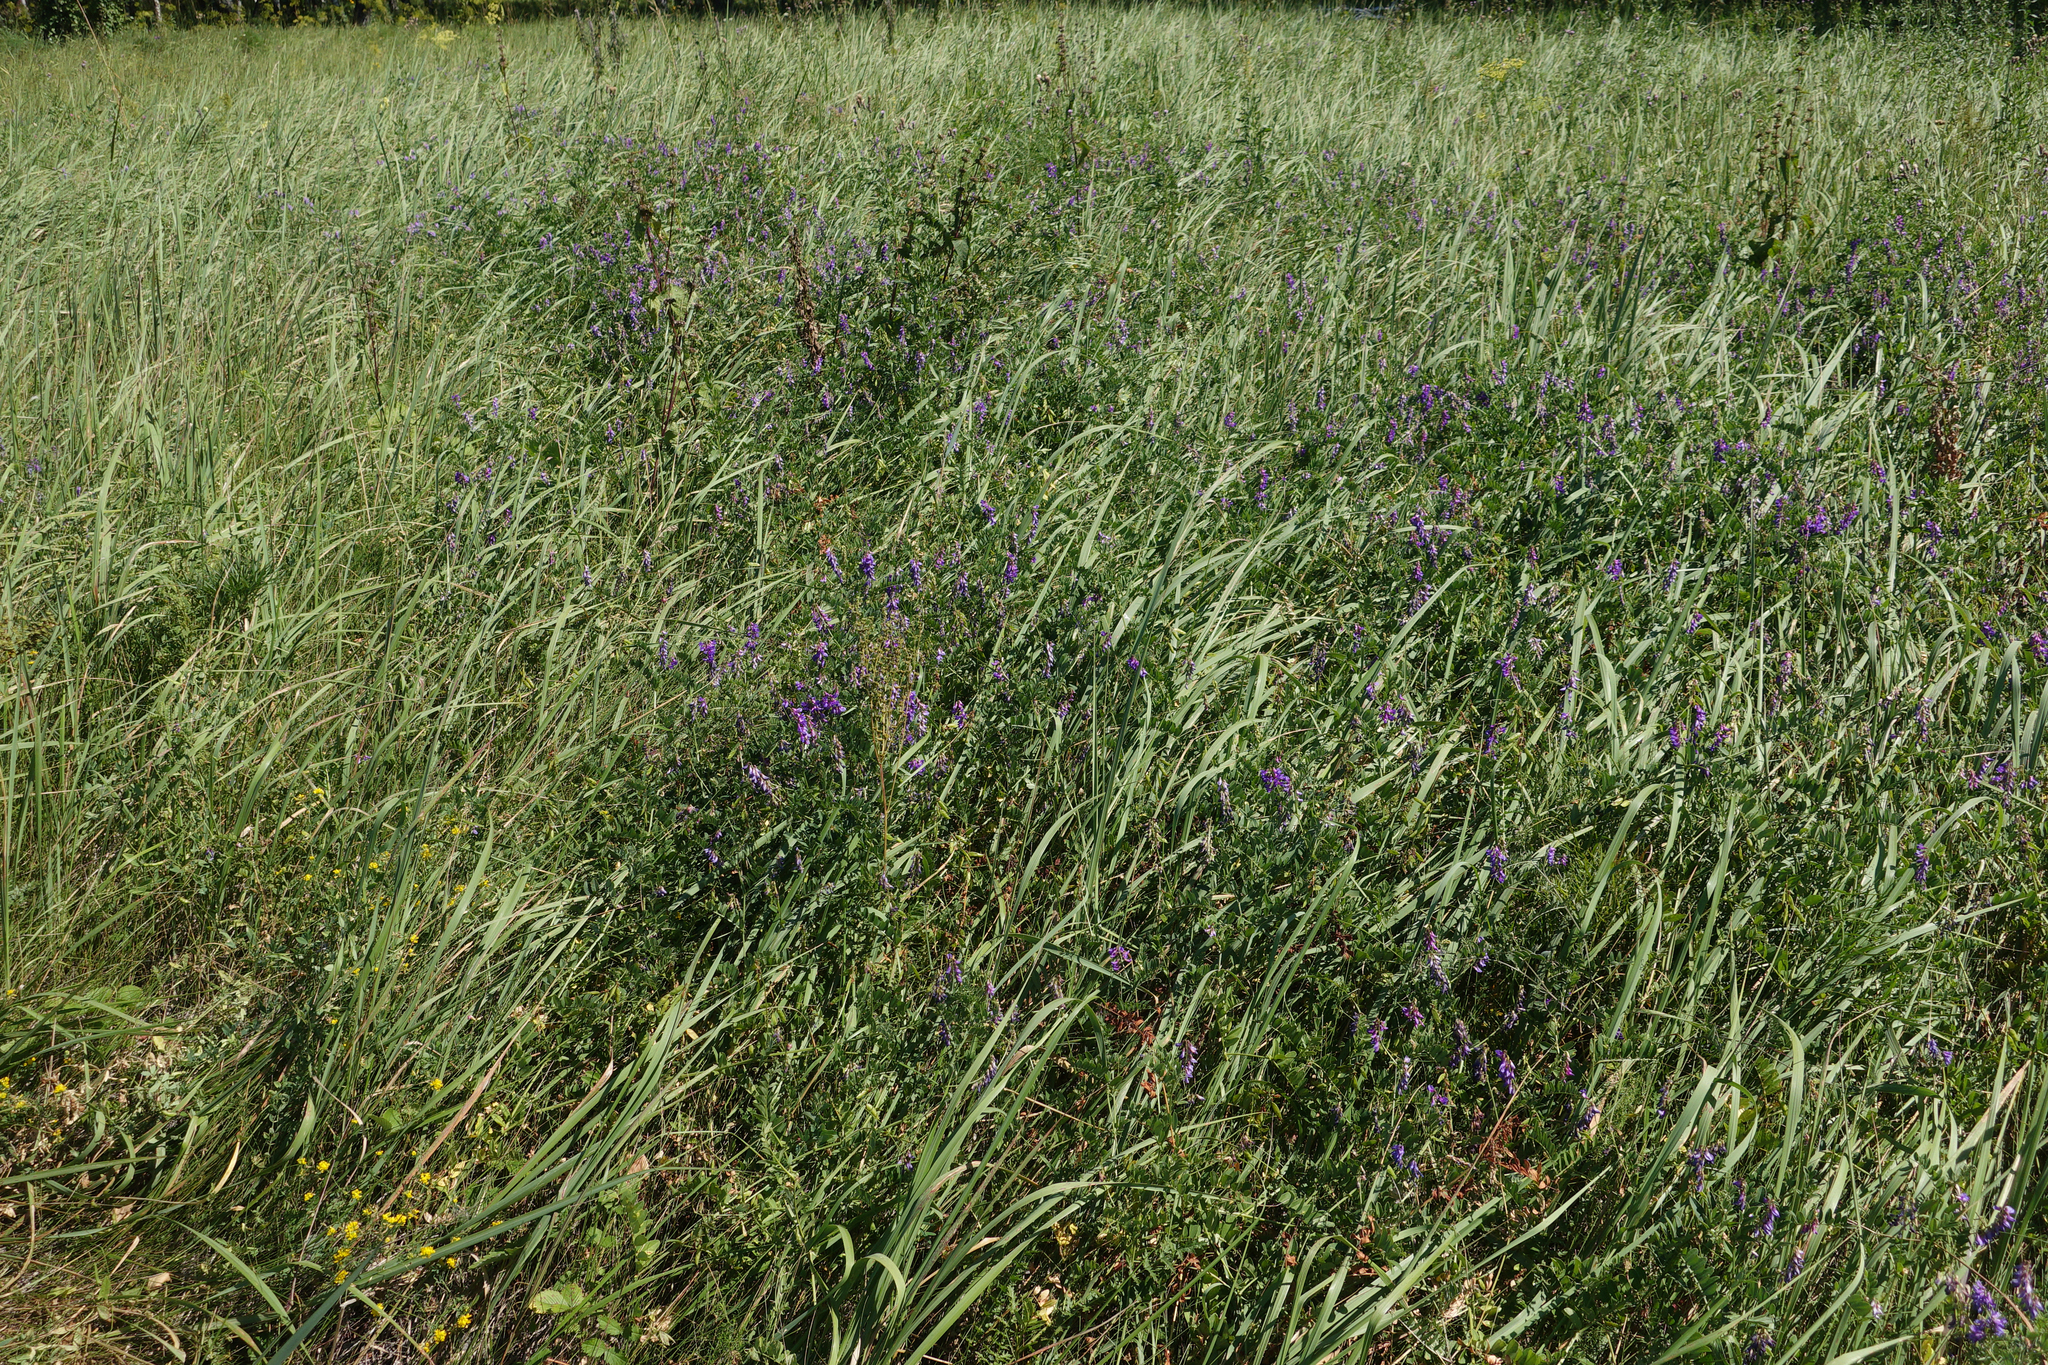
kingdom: Plantae
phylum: Tracheophyta
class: Magnoliopsida
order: Fabales
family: Fabaceae
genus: Vicia
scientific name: Vicia amoena
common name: Cheder ebs
